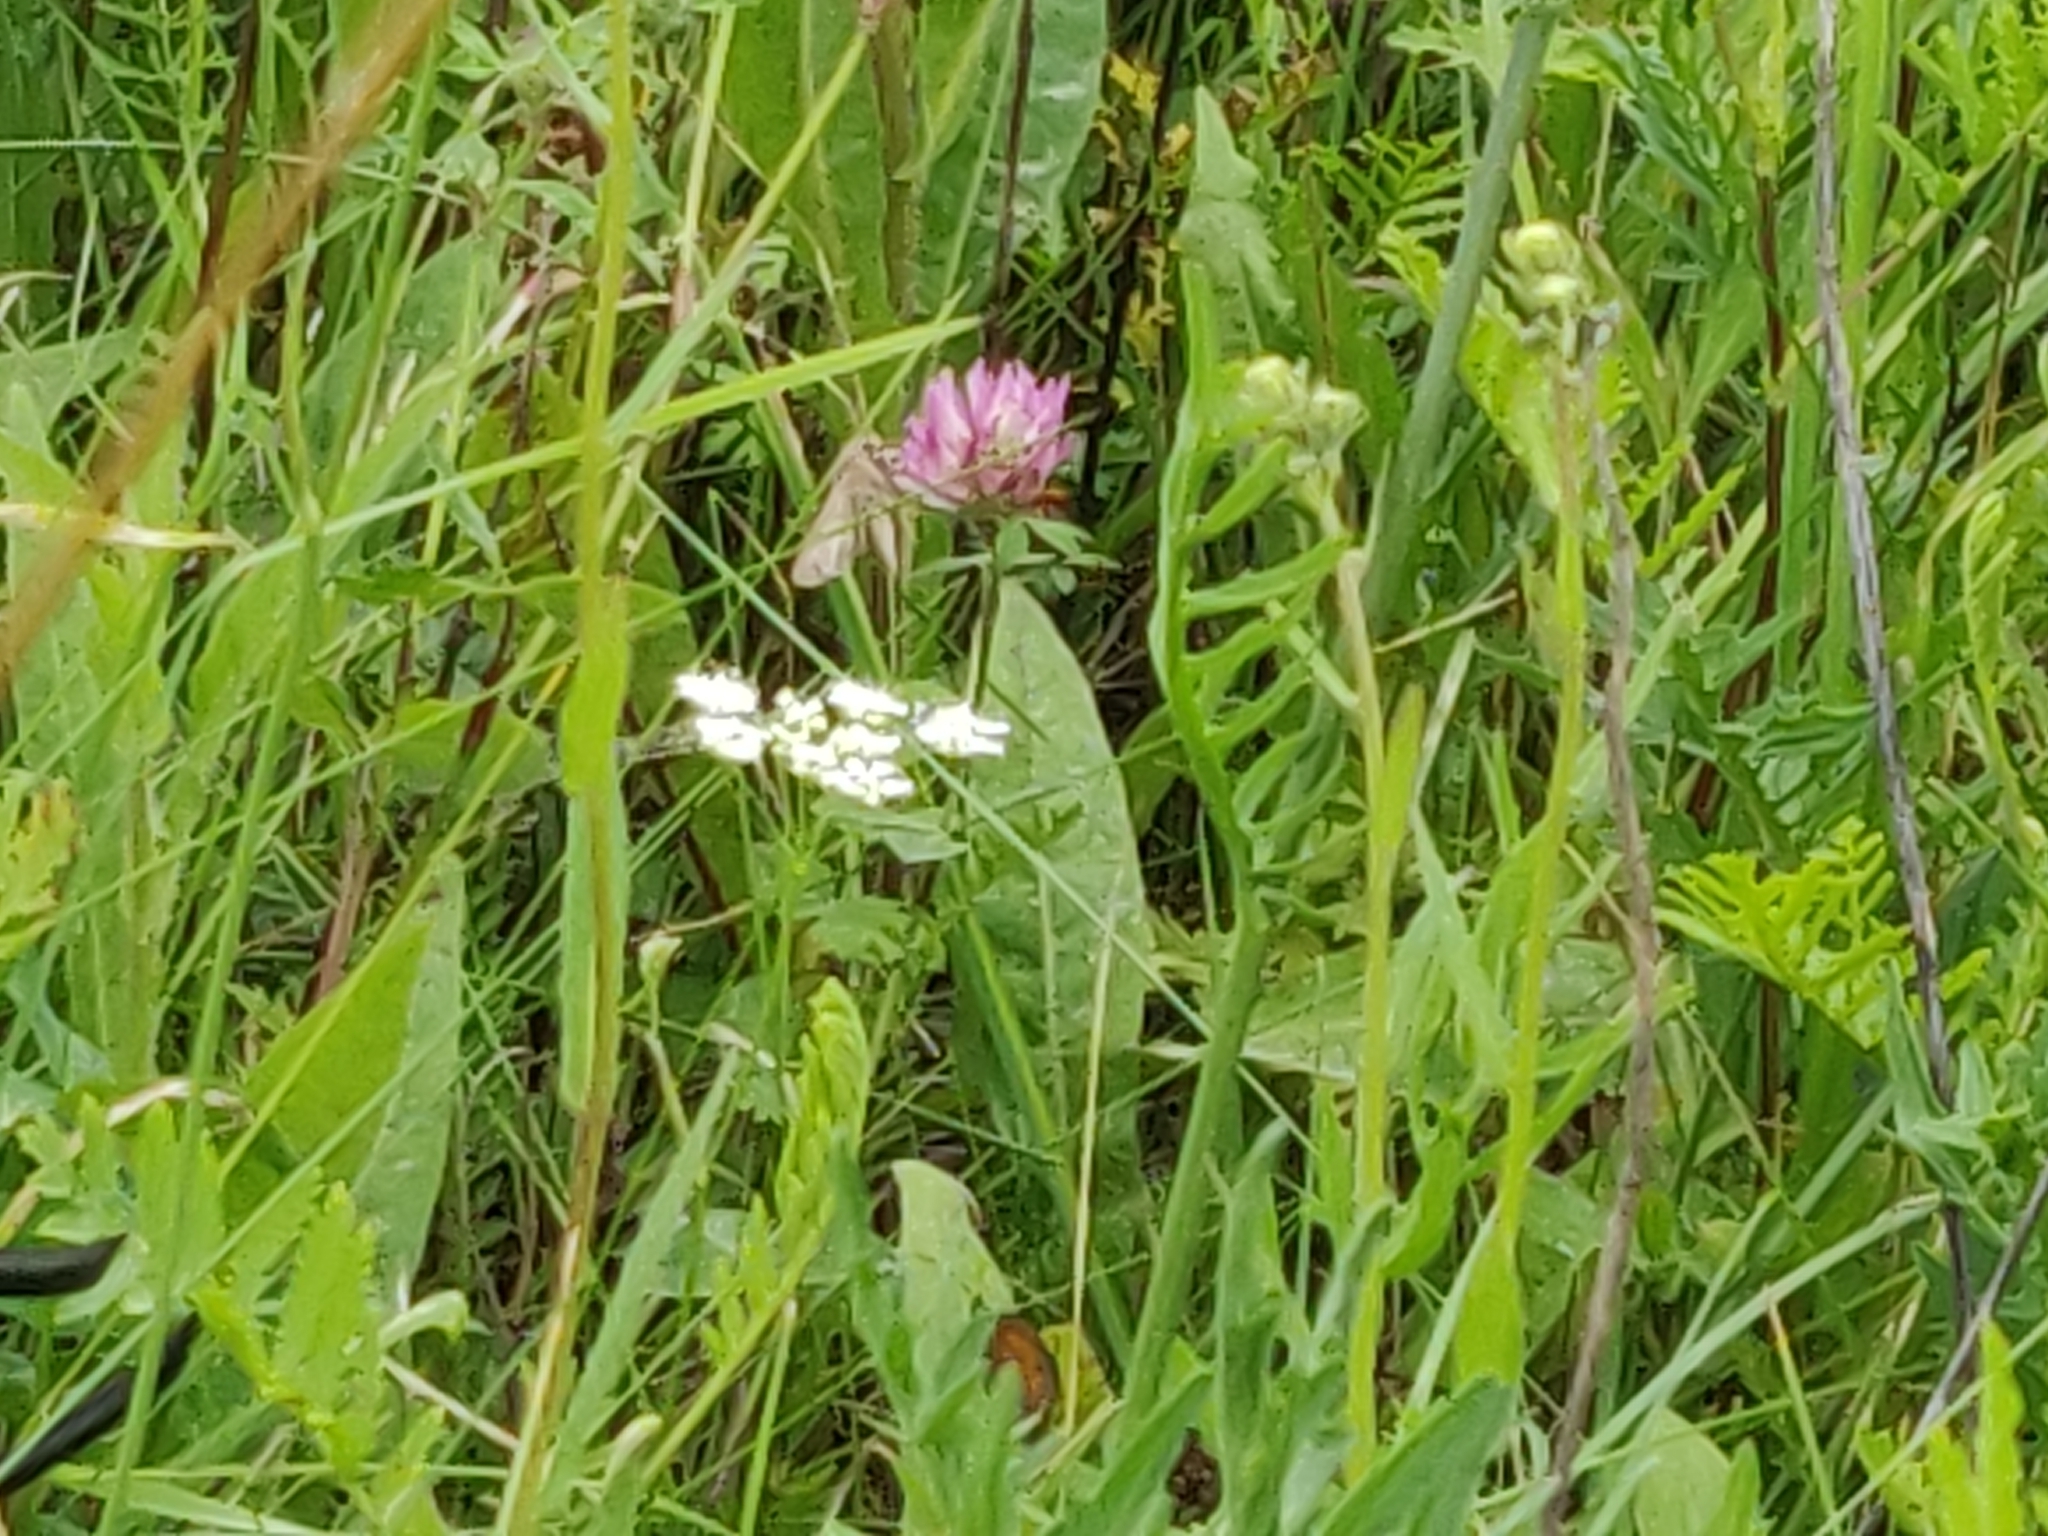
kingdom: Plantae
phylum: Tracheophyta
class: Magnoliopsida
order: Fabales
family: Fabaceae
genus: Trifolium
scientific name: Trifolium pratense
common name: Red clover
